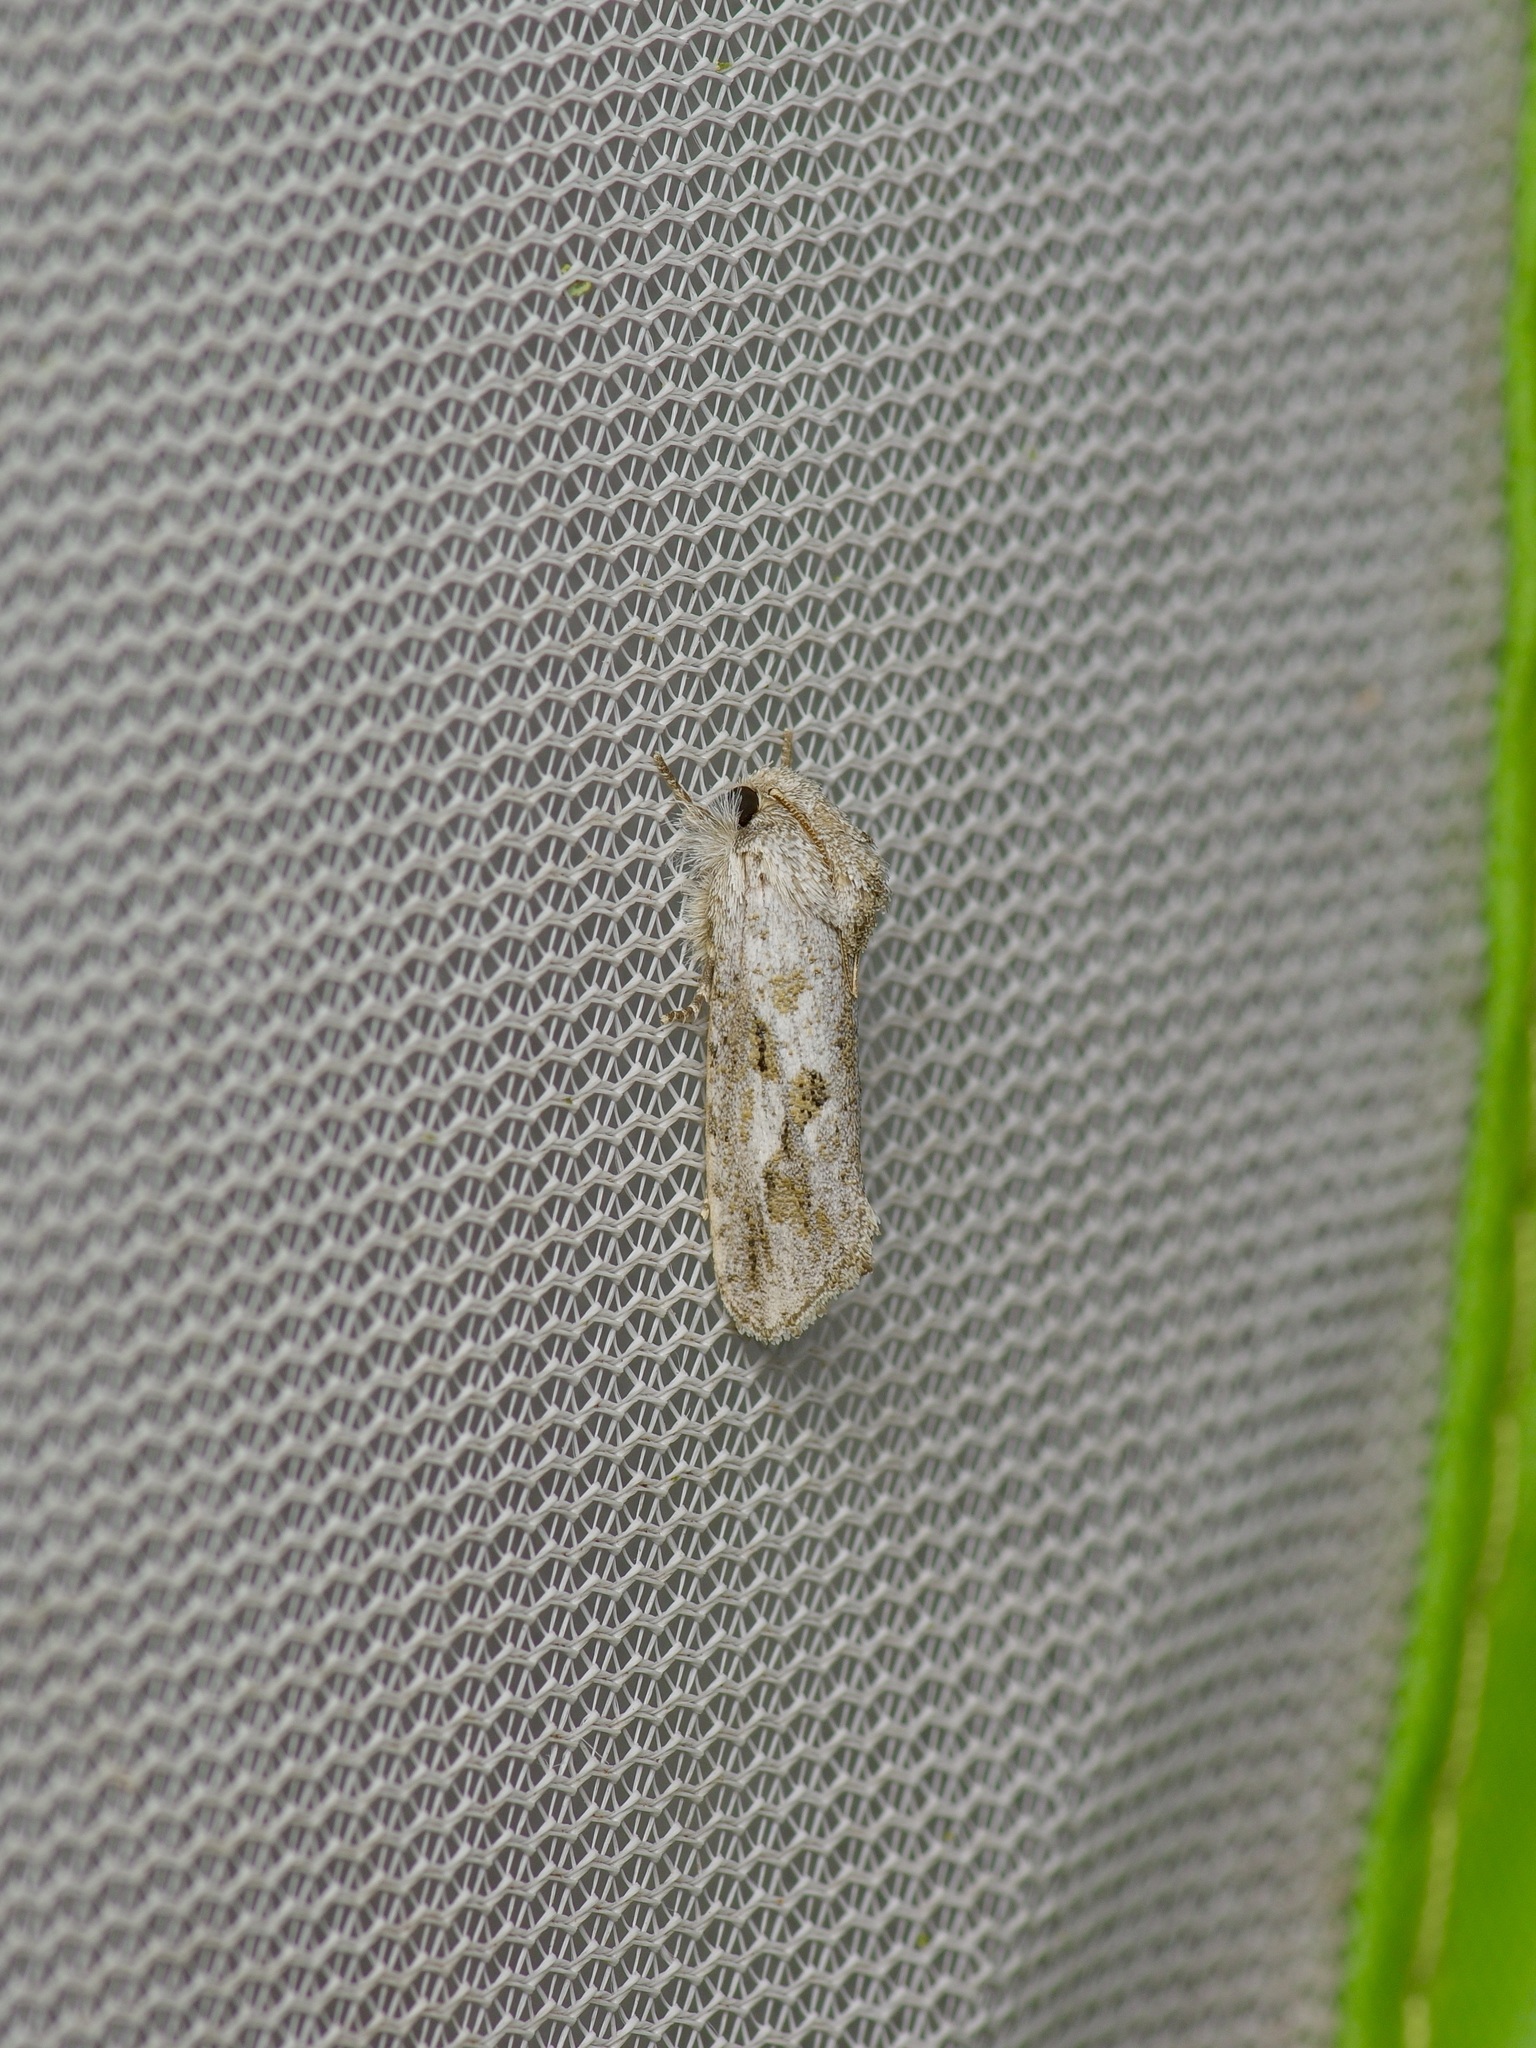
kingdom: Animalia
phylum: Arthropoda
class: Insecta
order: Lepidoptera
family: Tineidae
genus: Acrolophus
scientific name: Acrolophus griseus
